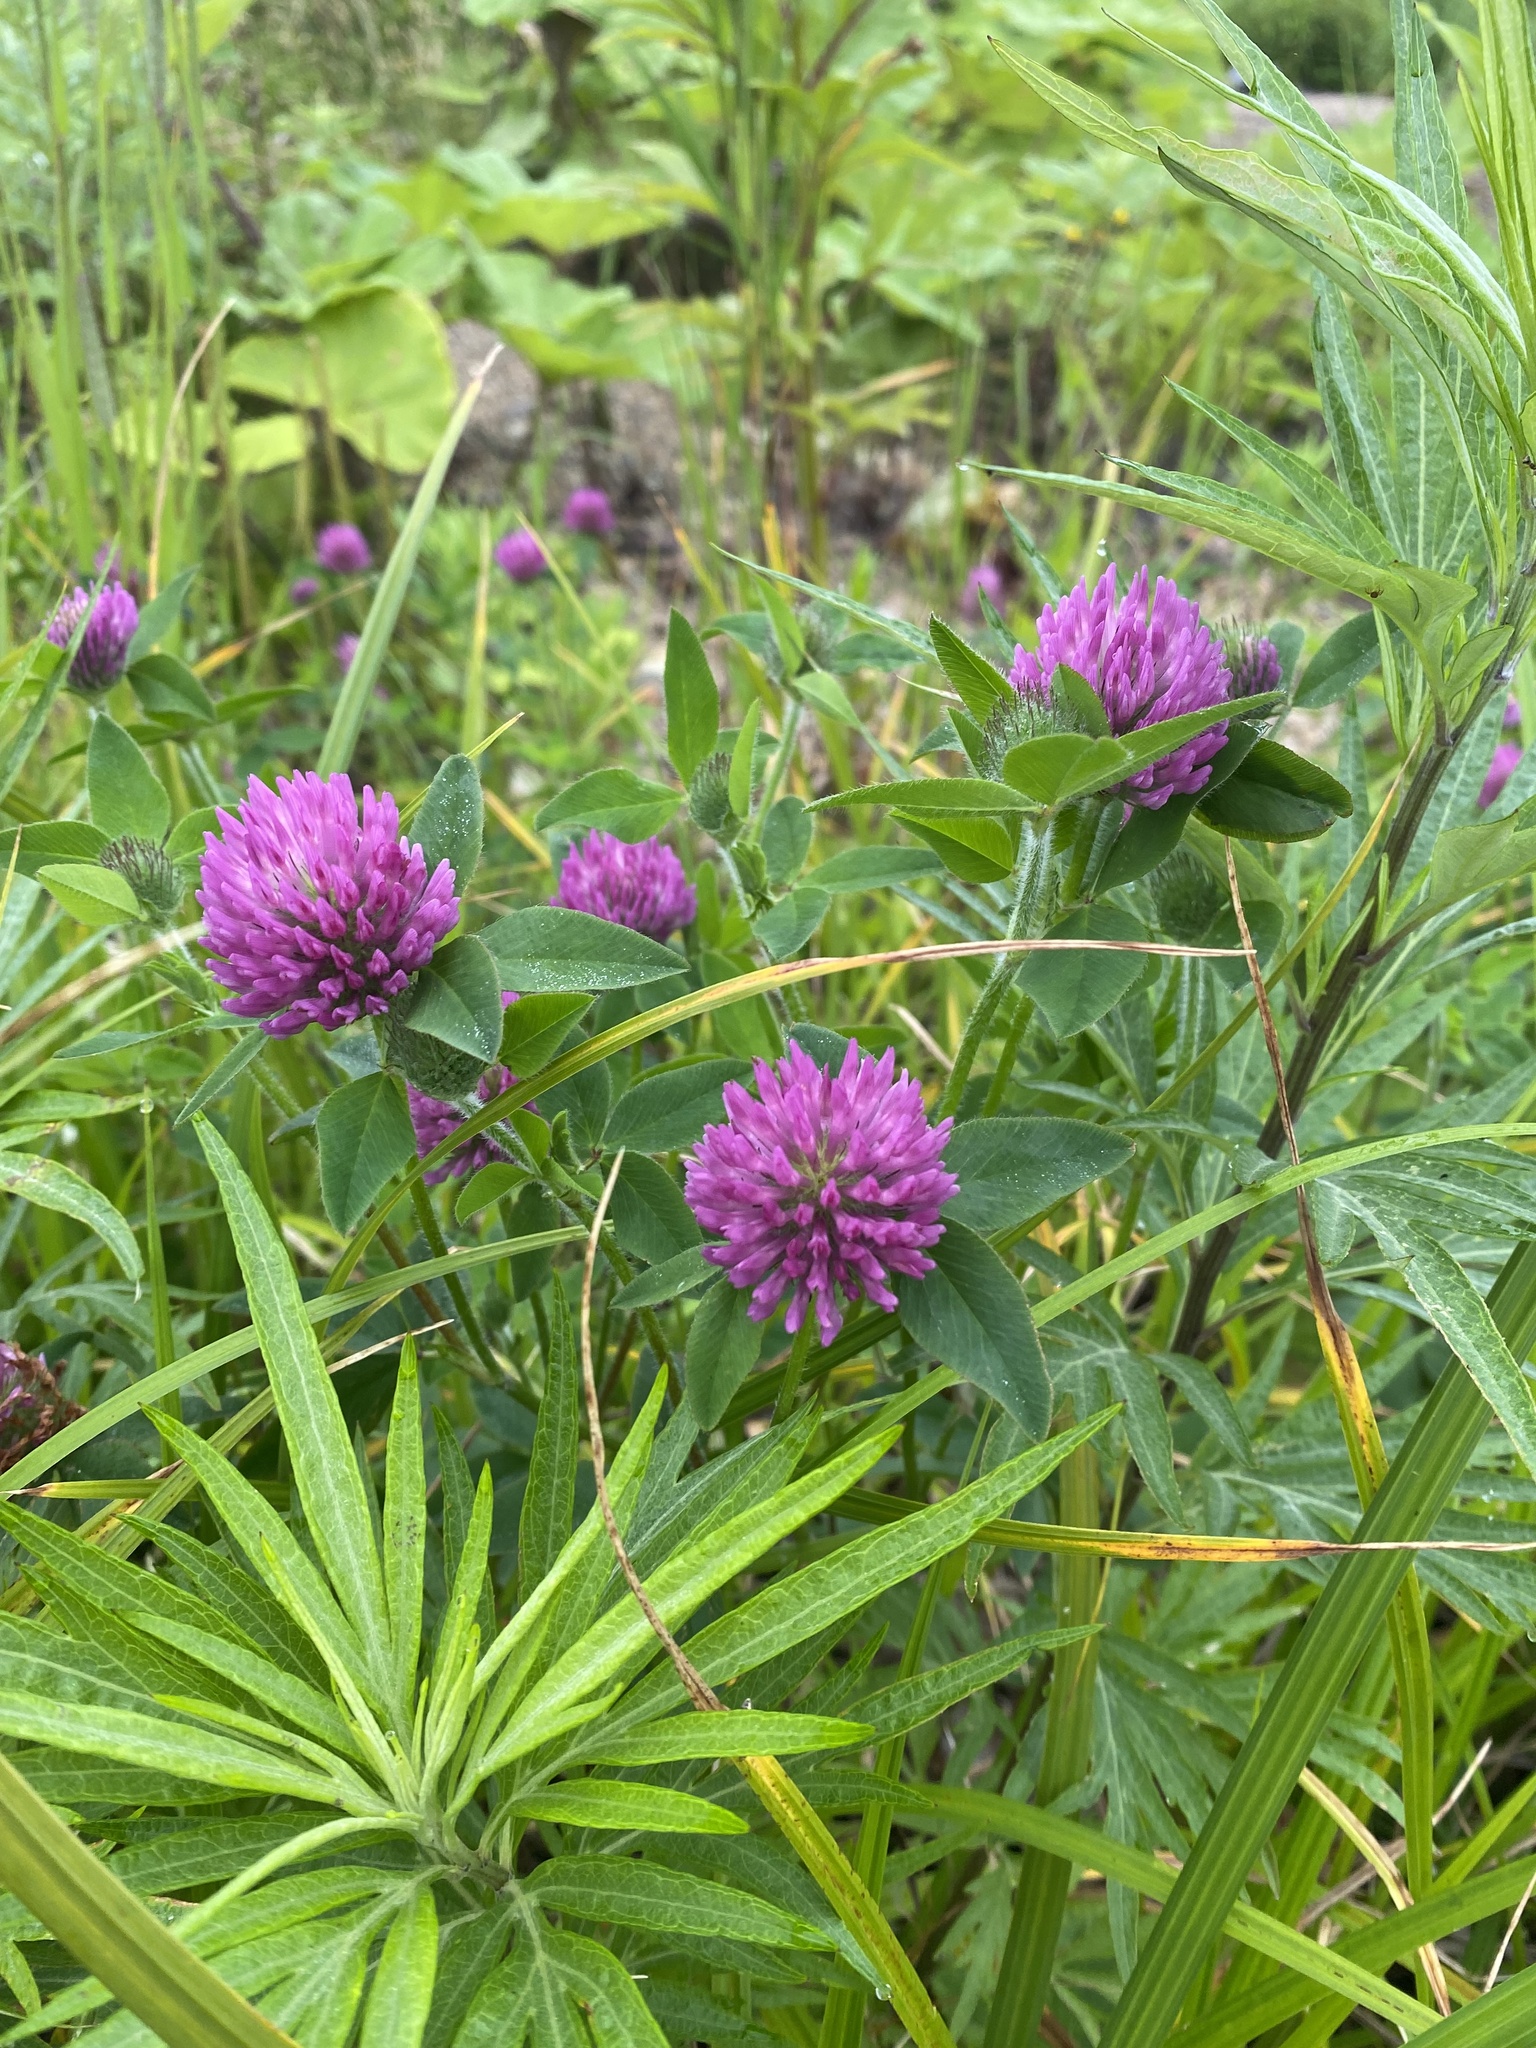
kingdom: Plantae
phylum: Tracheophyta
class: Magnoliopsida
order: Fabales
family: Fabaceae
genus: Trifolium
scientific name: Trifolium pratense
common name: Red clover
